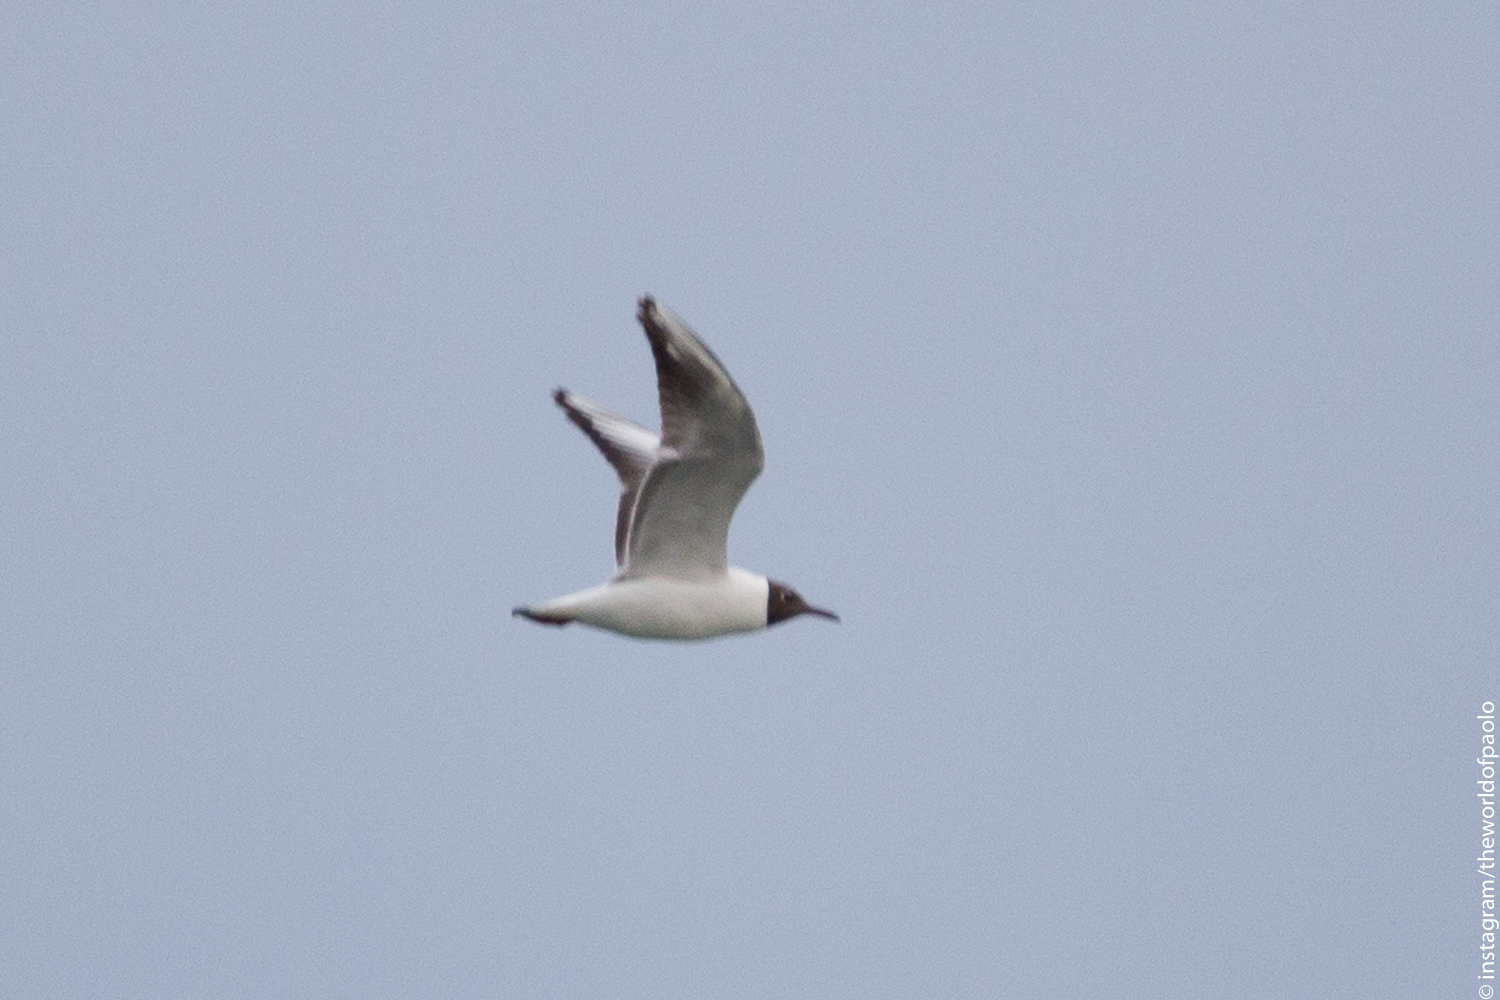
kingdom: Animalia
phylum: Chordata
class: Aves
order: Charadriiformes
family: Laridae
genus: Chroicocephalus
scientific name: Chroicocephalus ridibundus
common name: Black-headed gull
